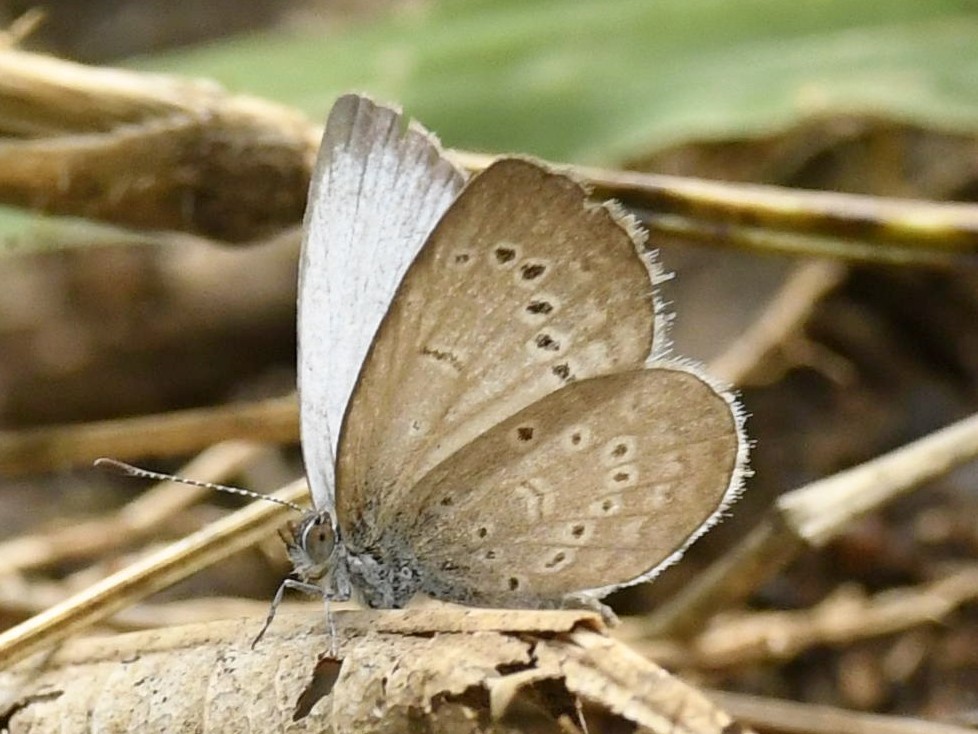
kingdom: Animalia
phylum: Arthropoda
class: Insecta
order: Lepidoptera
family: Lycaenidae
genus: Pseudozizeeria
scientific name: Pseudozizeeria maha
